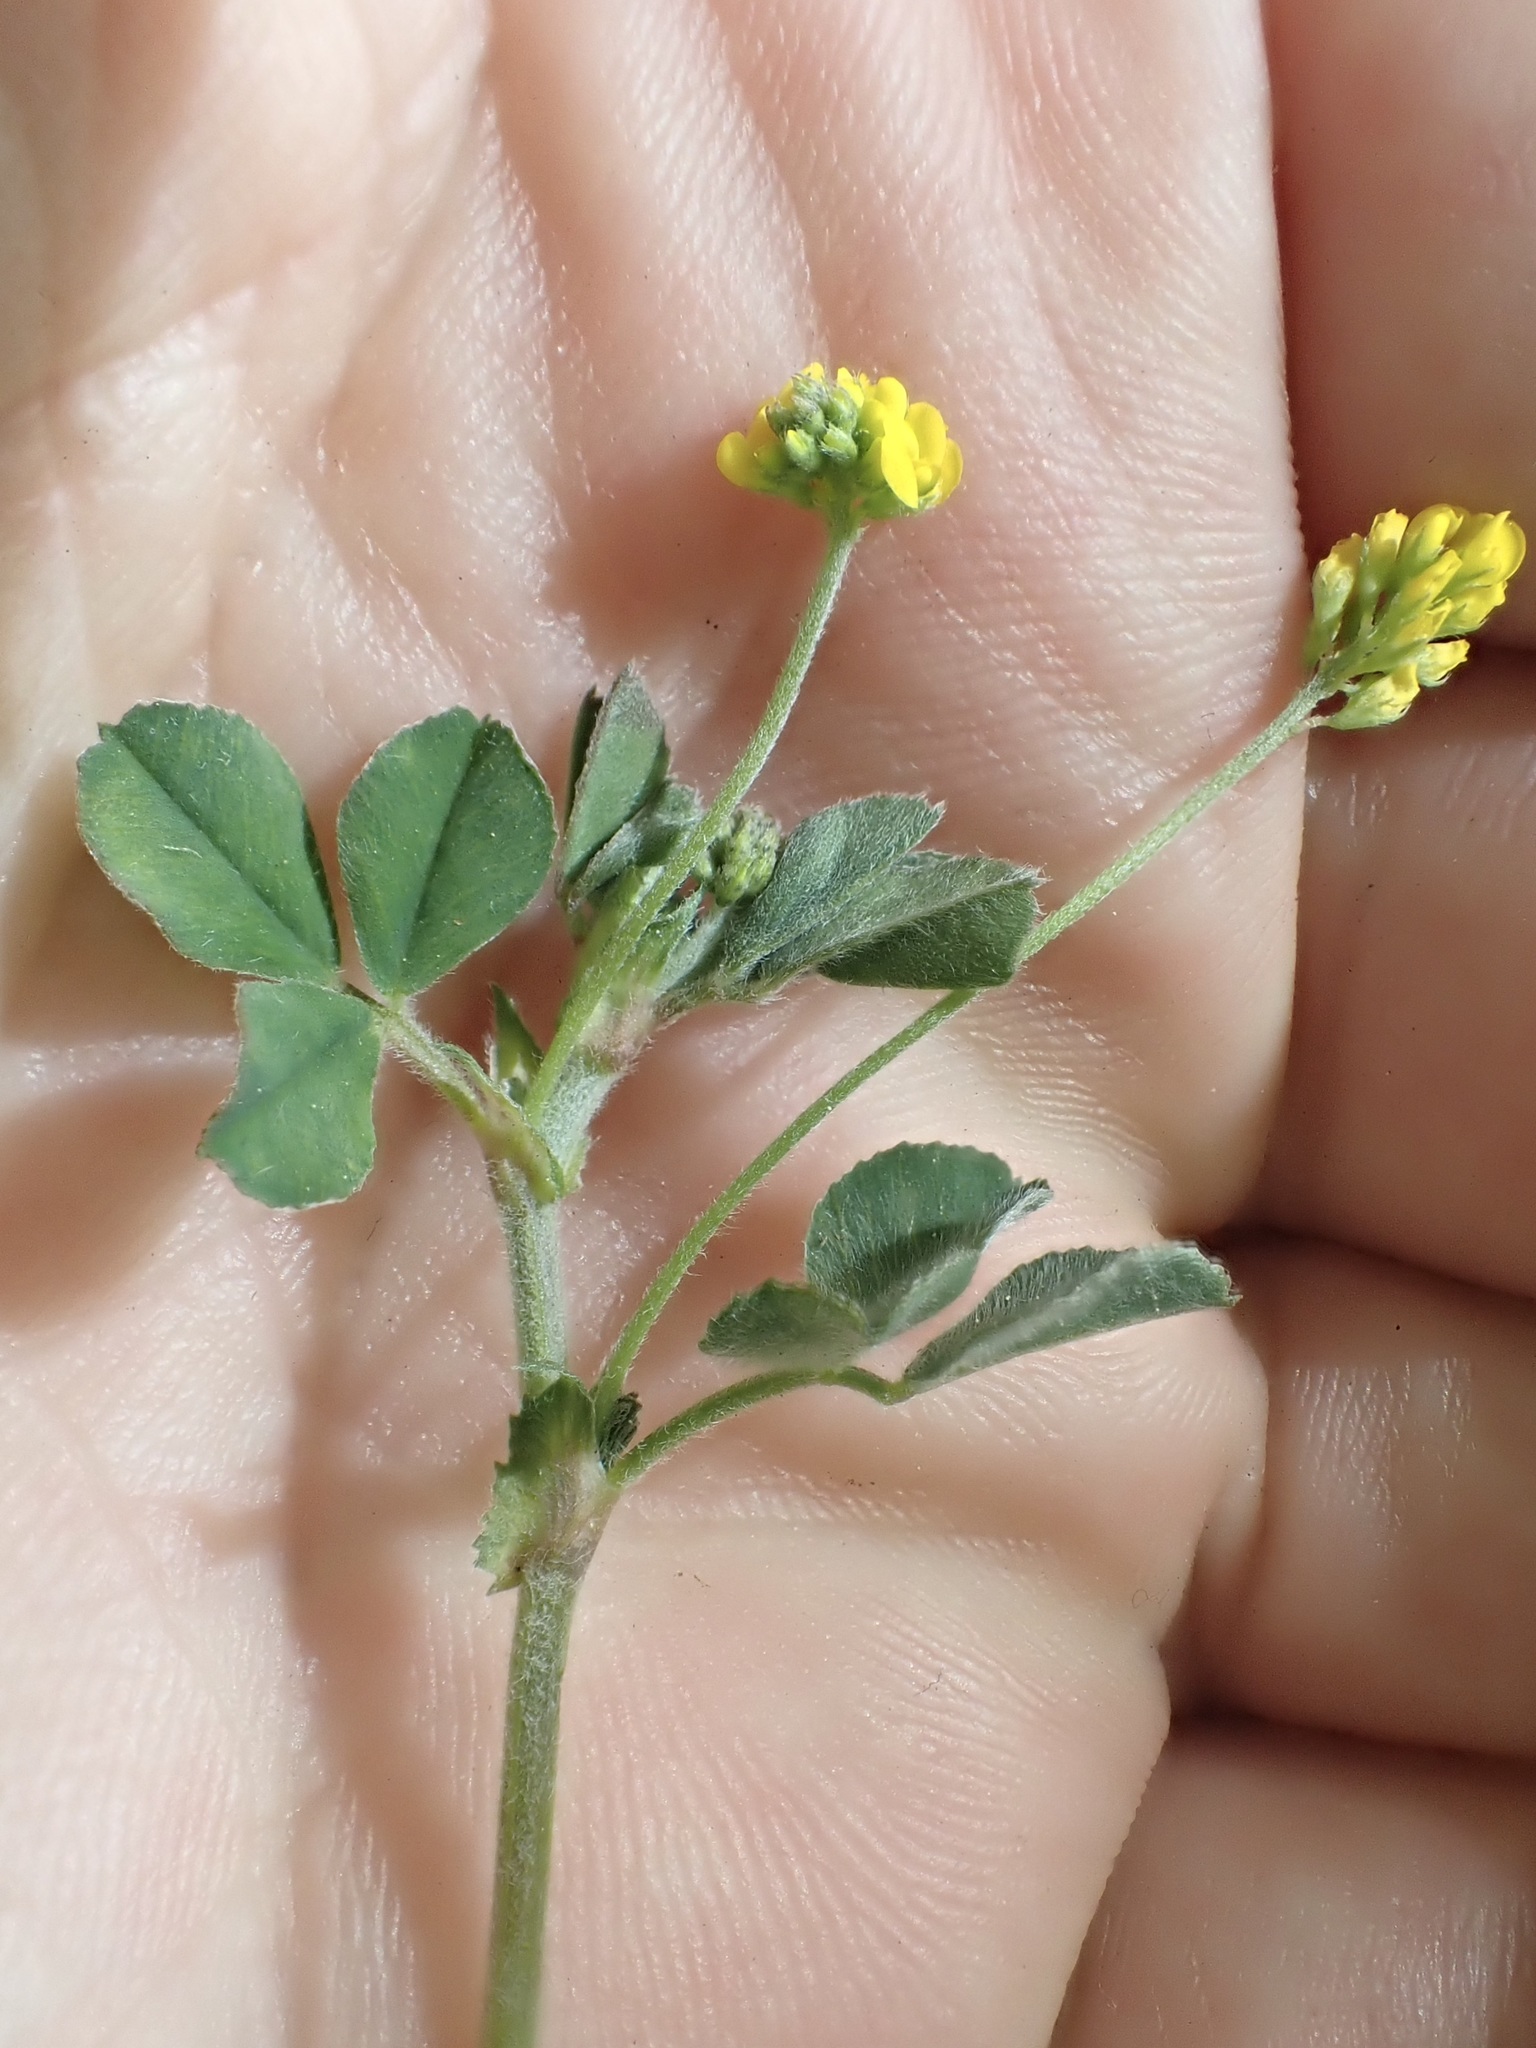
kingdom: Plantae
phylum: Tracheophyta
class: Magnoliopsida
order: Fabales
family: Fabaceae
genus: Medicago
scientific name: Medicago lupulina
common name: Black medick
